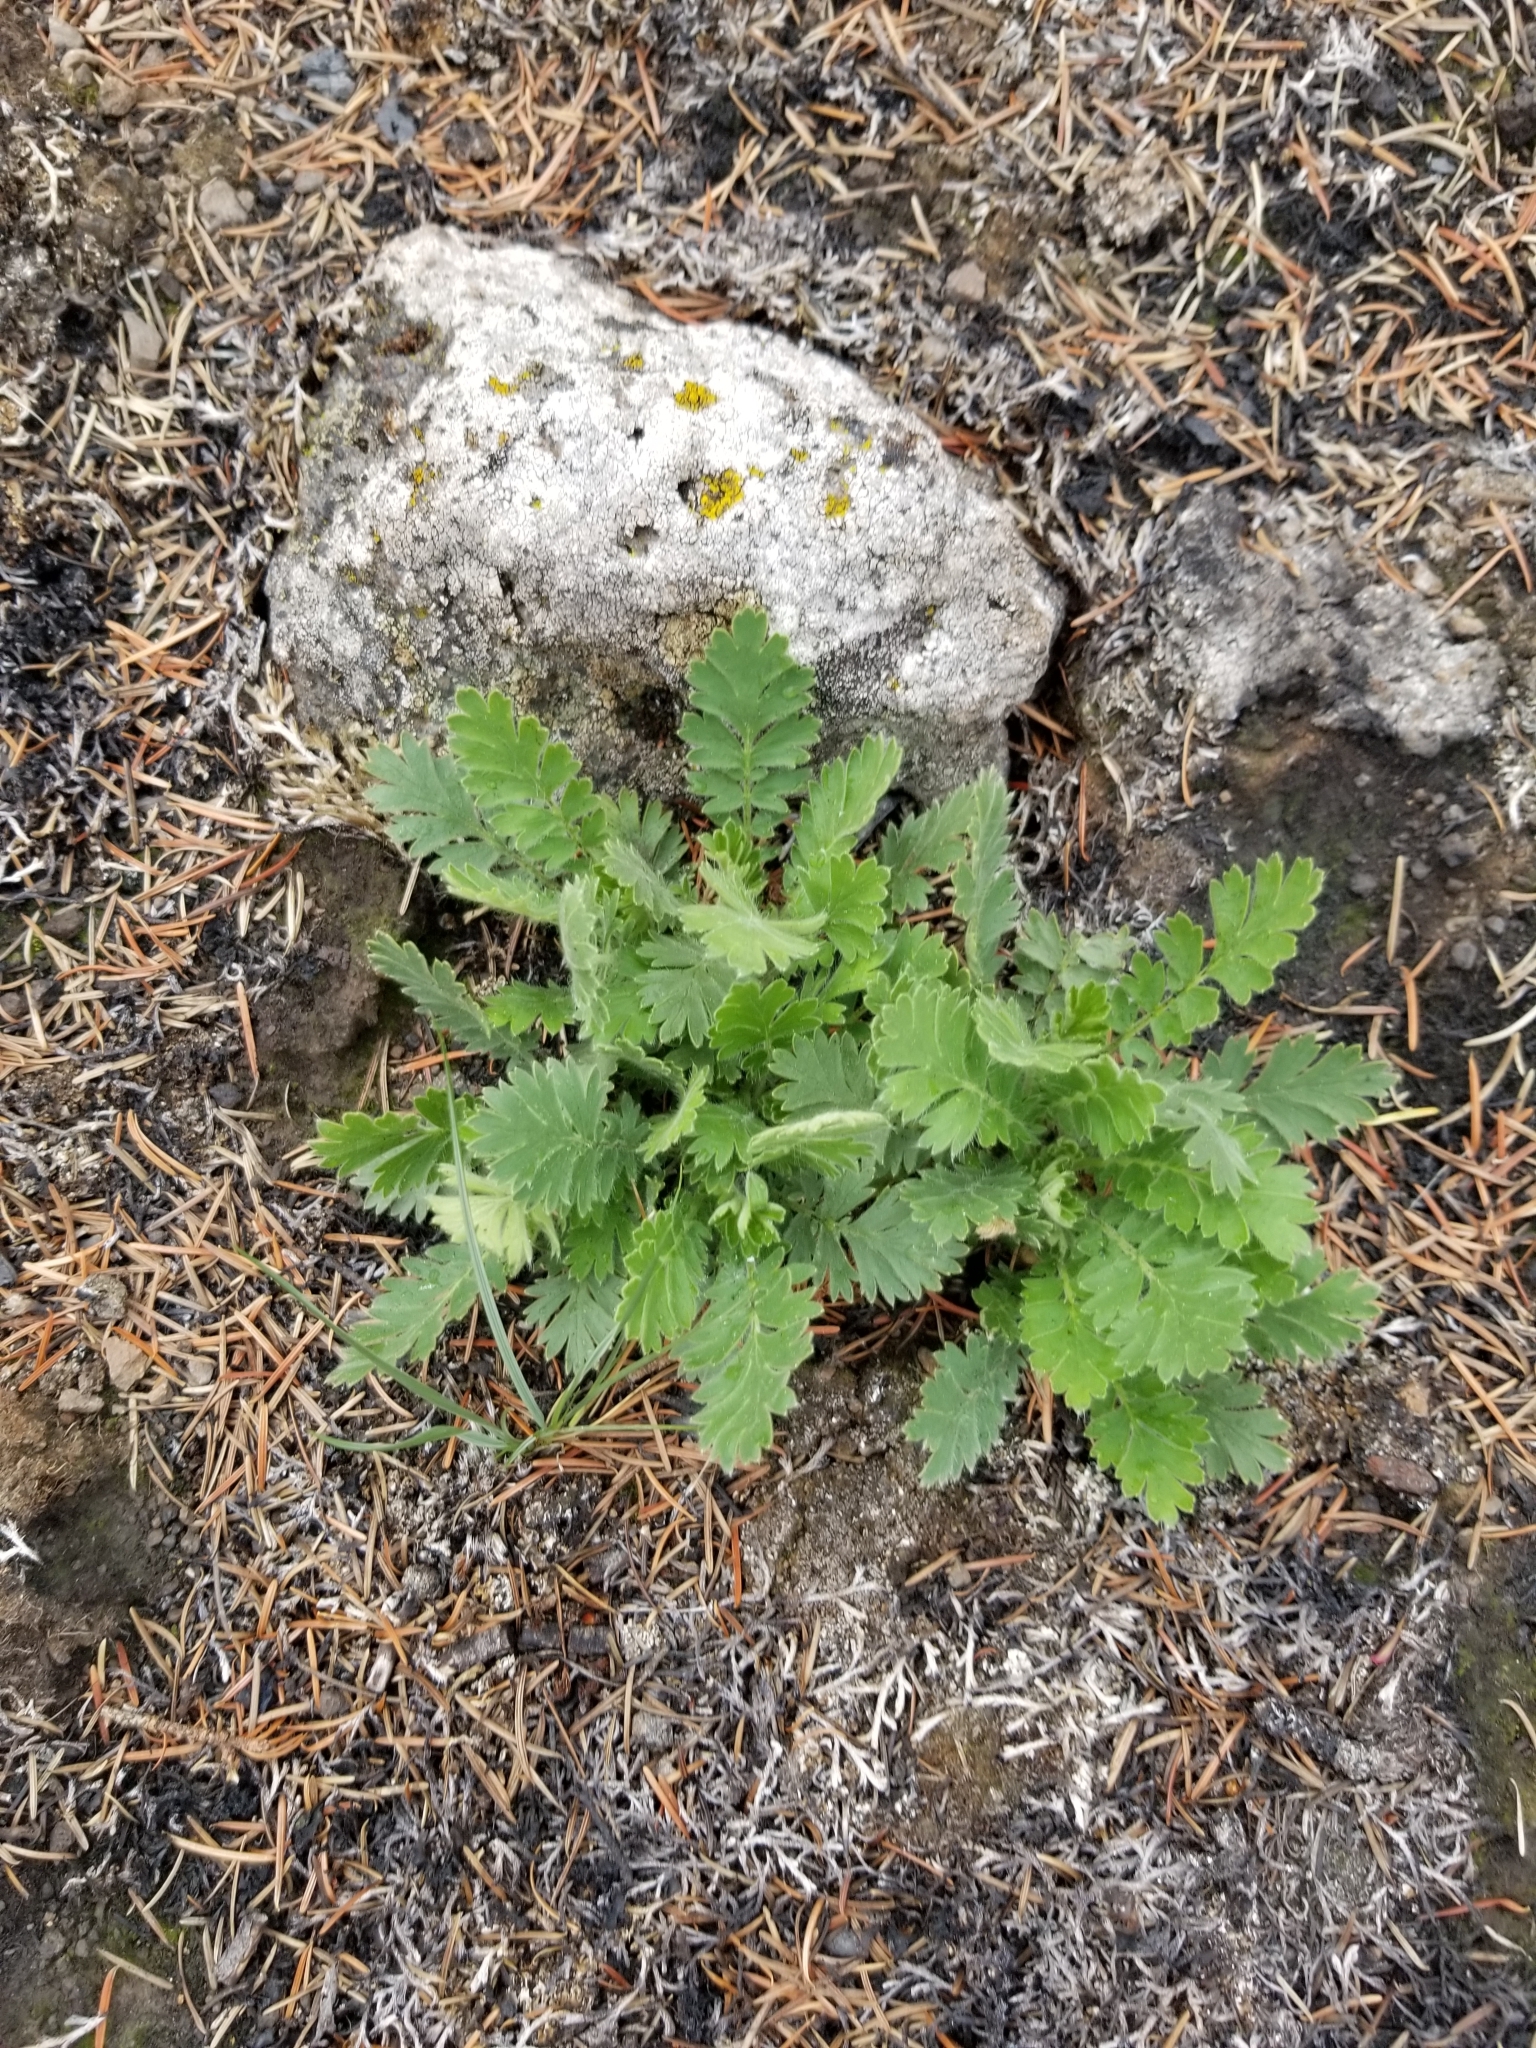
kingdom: Plantae
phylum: Tracheophyta
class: Magnoliopsida
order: Rosales
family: Rosaceae
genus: Geum
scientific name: Geum triflorum
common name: Old man's whiskers
